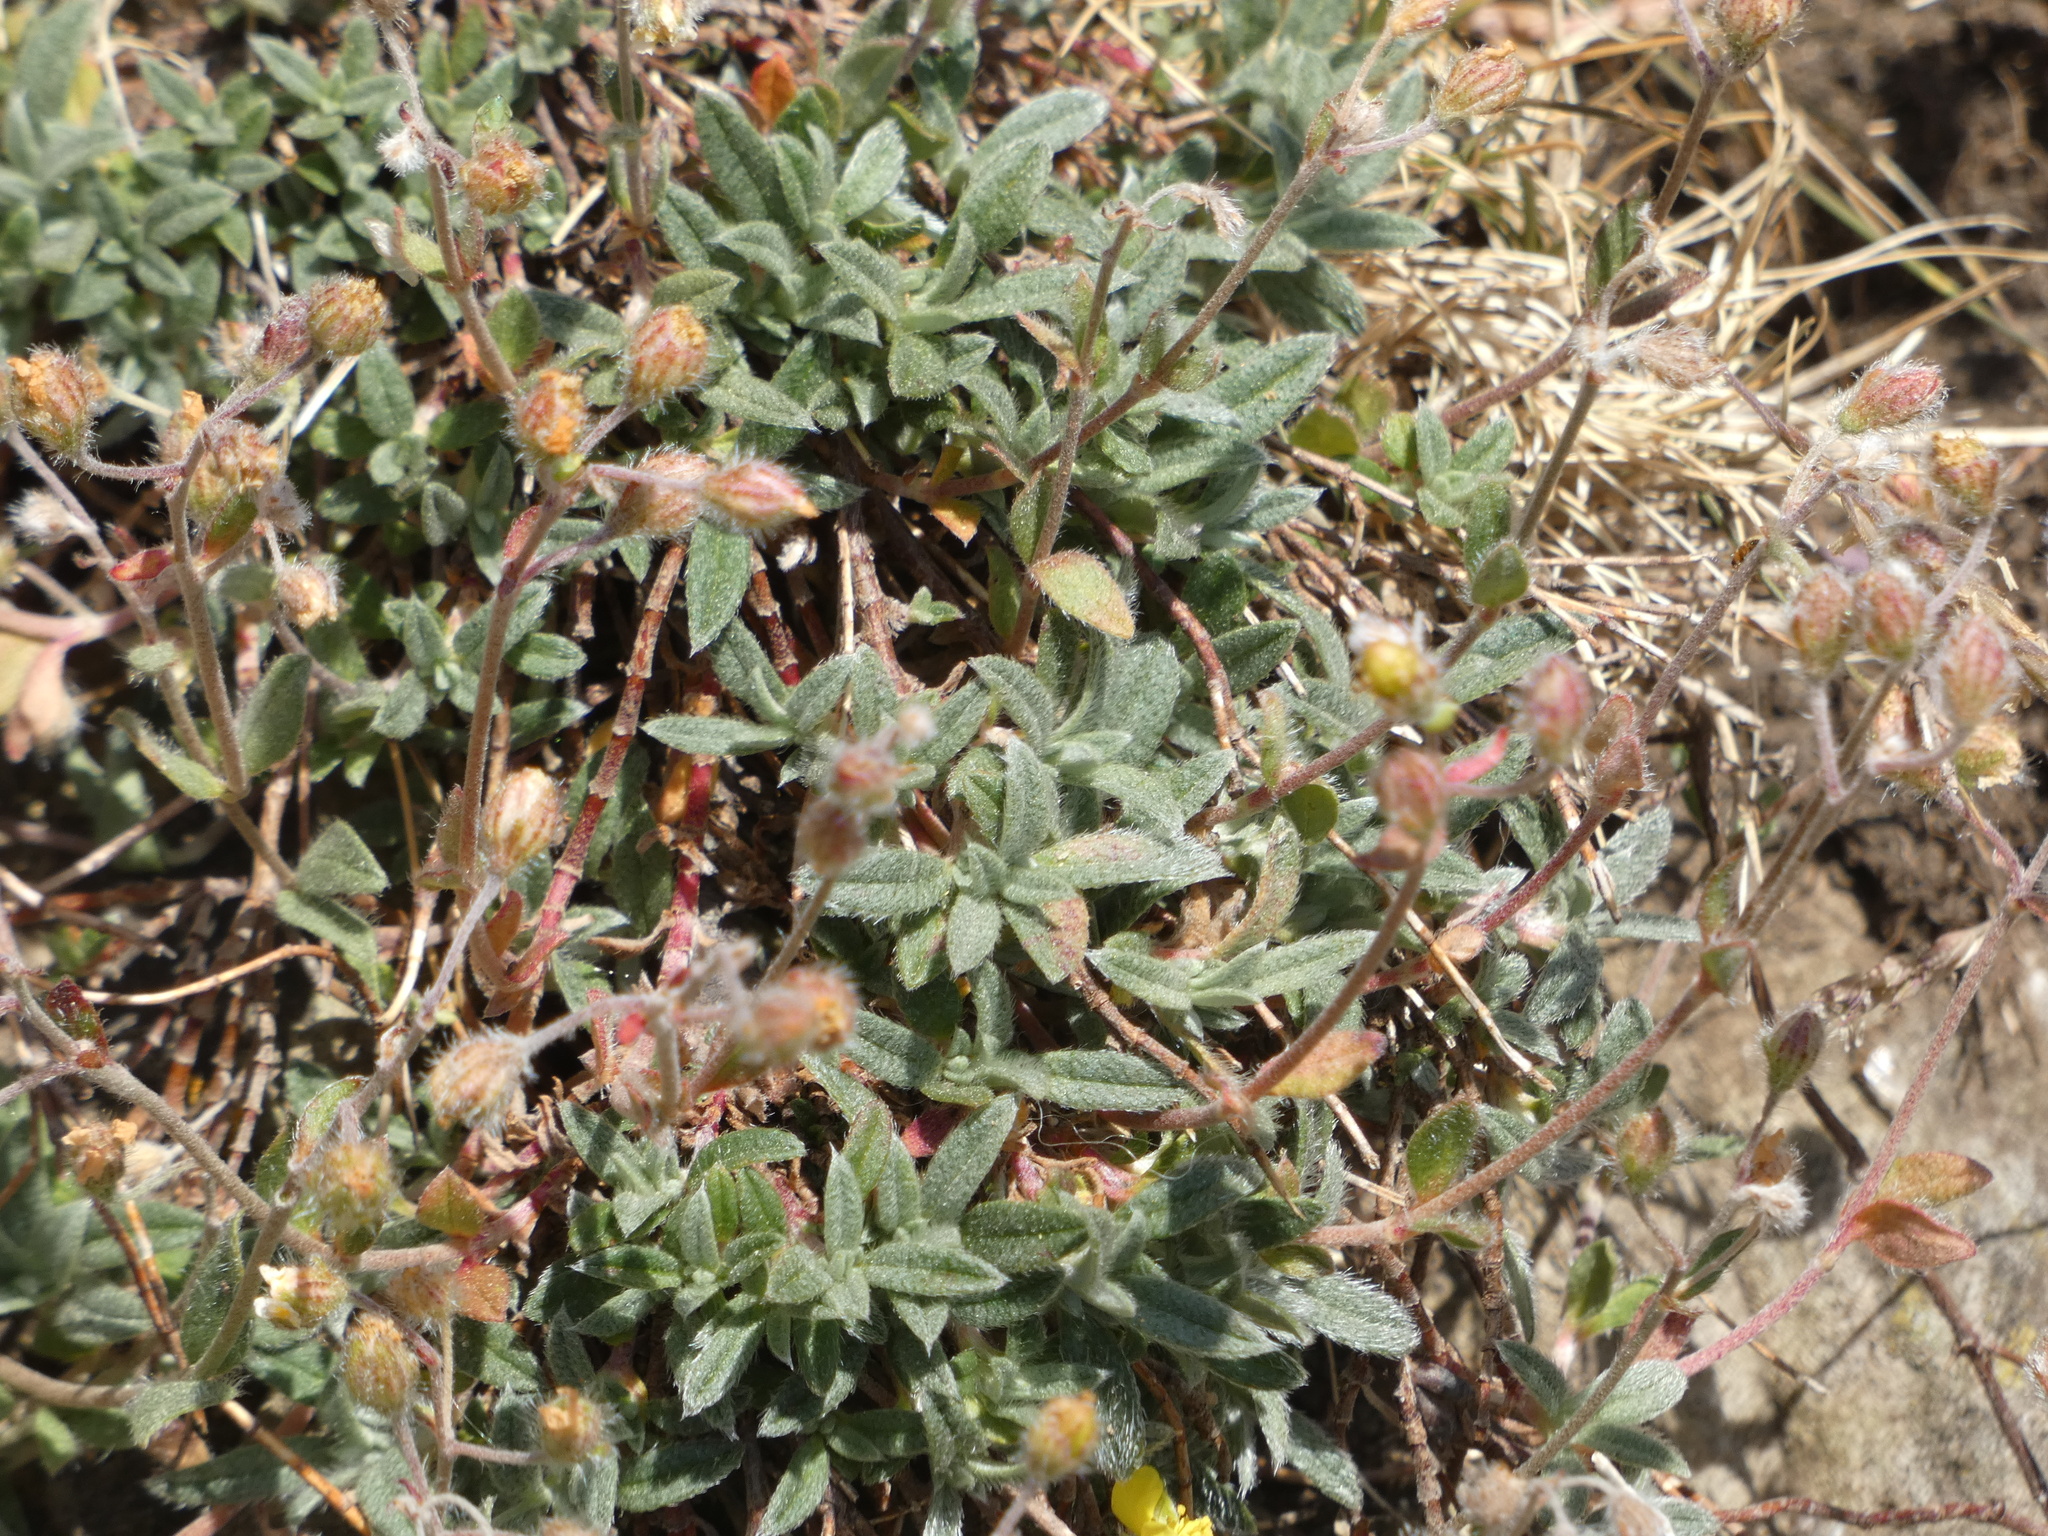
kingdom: Plantae
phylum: Tracheophyta
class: Magnoliopsida
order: Malvales
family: Cistaceae
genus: Helianthemum
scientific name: Helianthemum oelandicum
